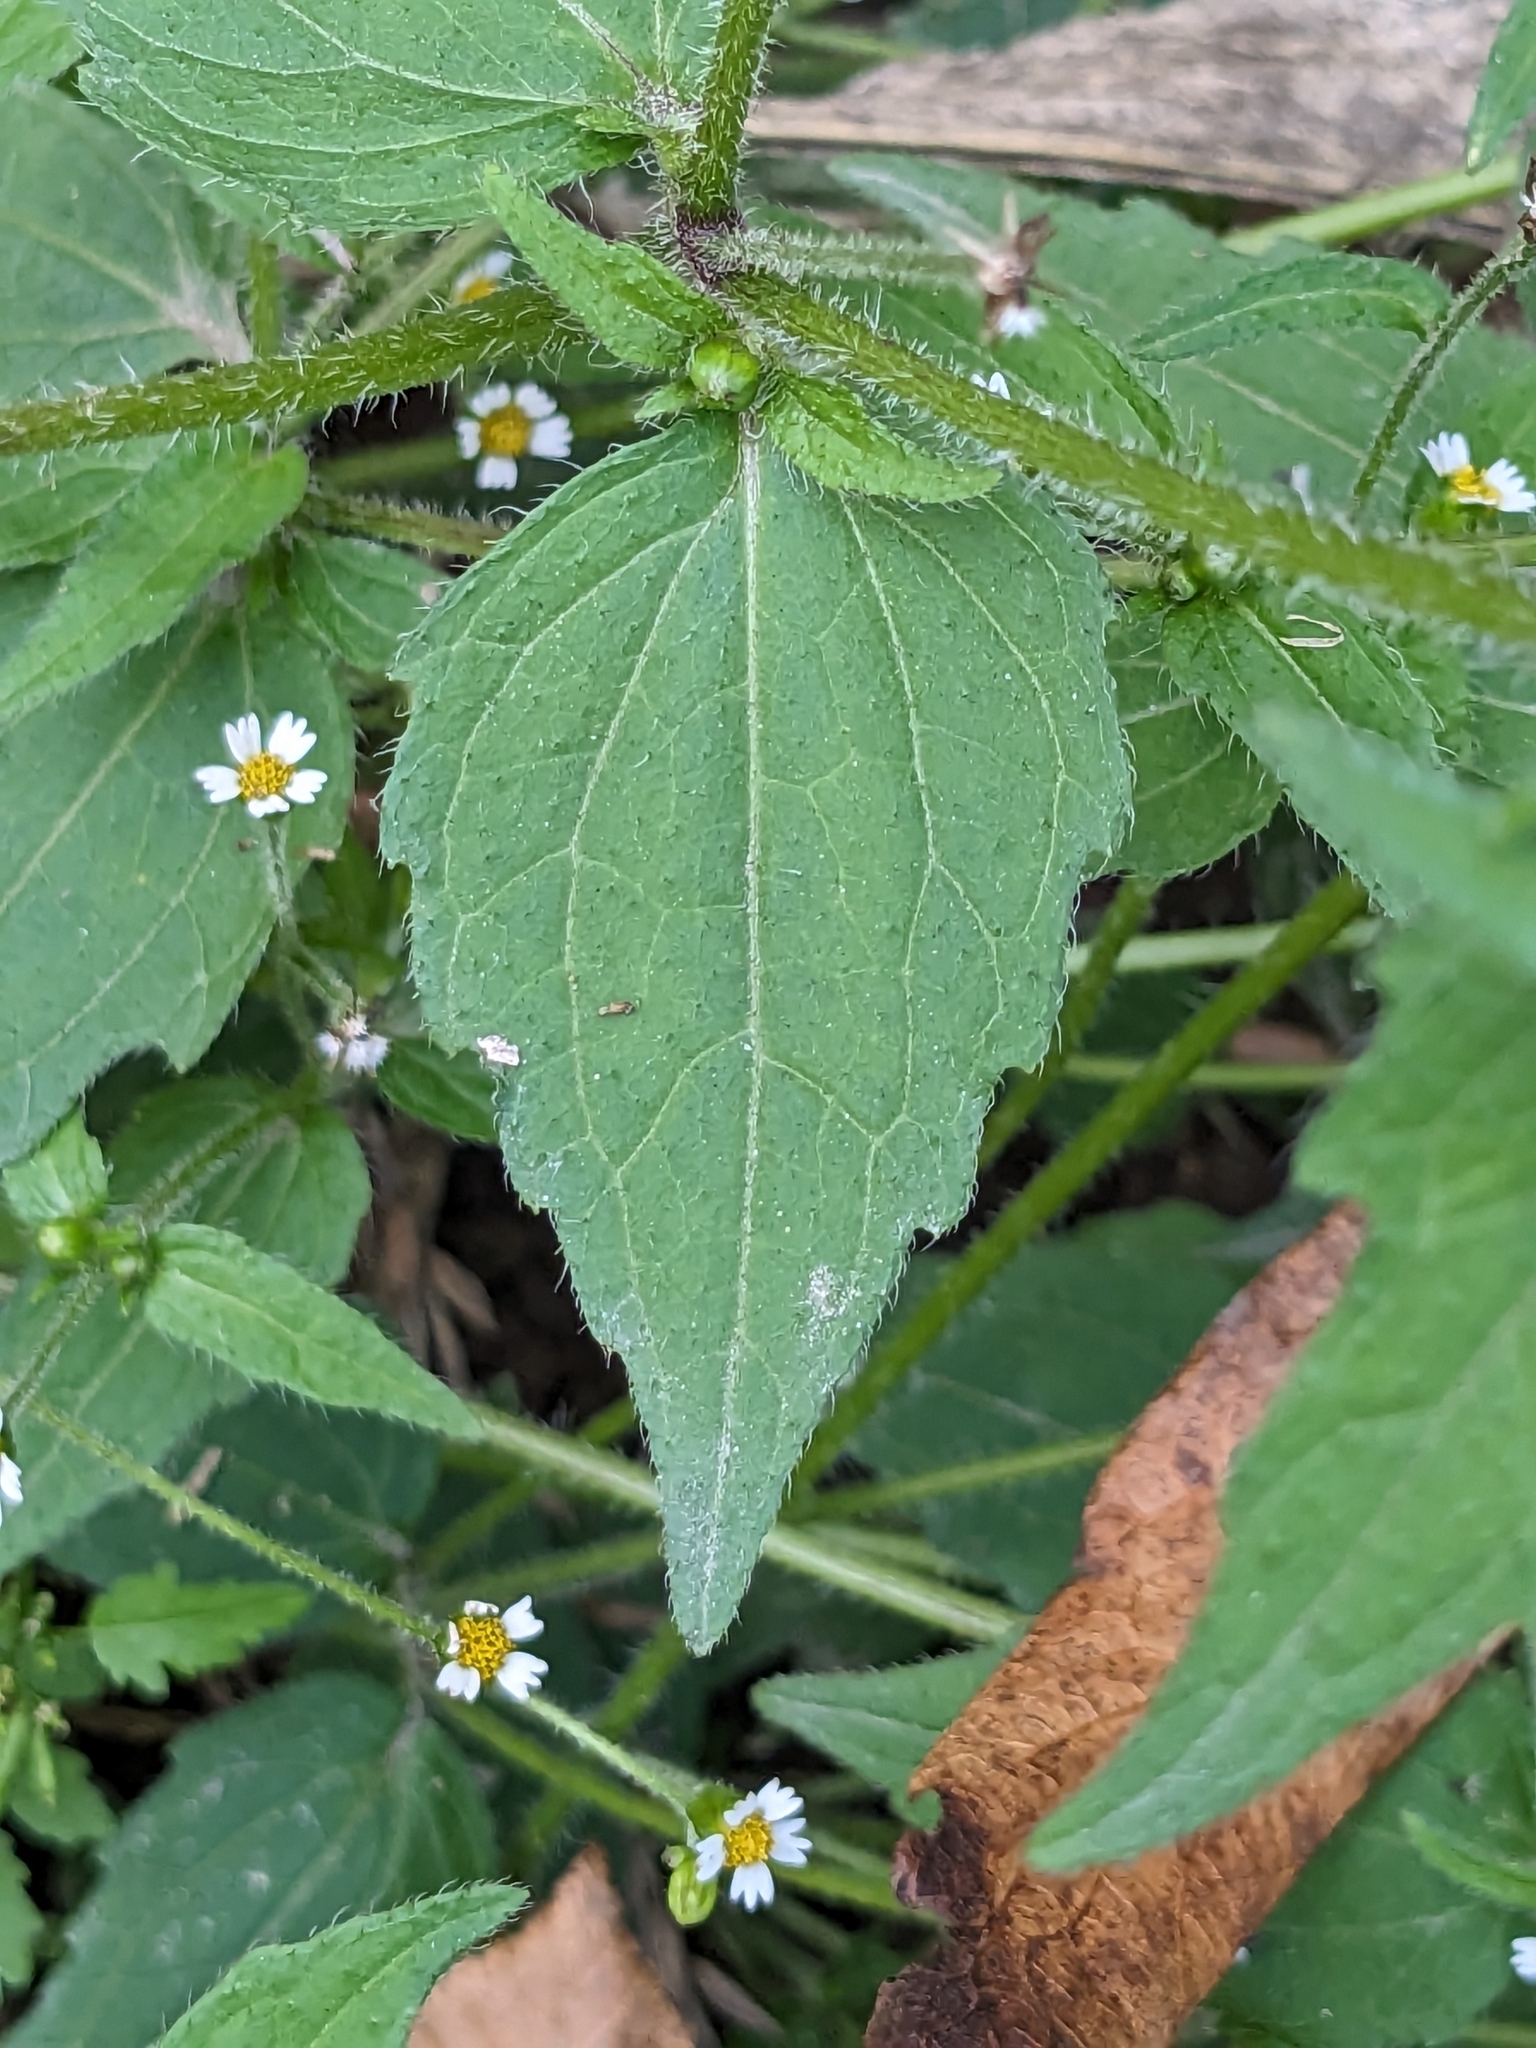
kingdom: Plantae
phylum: Tracheophyta
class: Magnoliopsida
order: Asterales
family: Asteraceae
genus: Galinsoga
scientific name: Galinsoga quadriradiata
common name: Shaggy soldier
